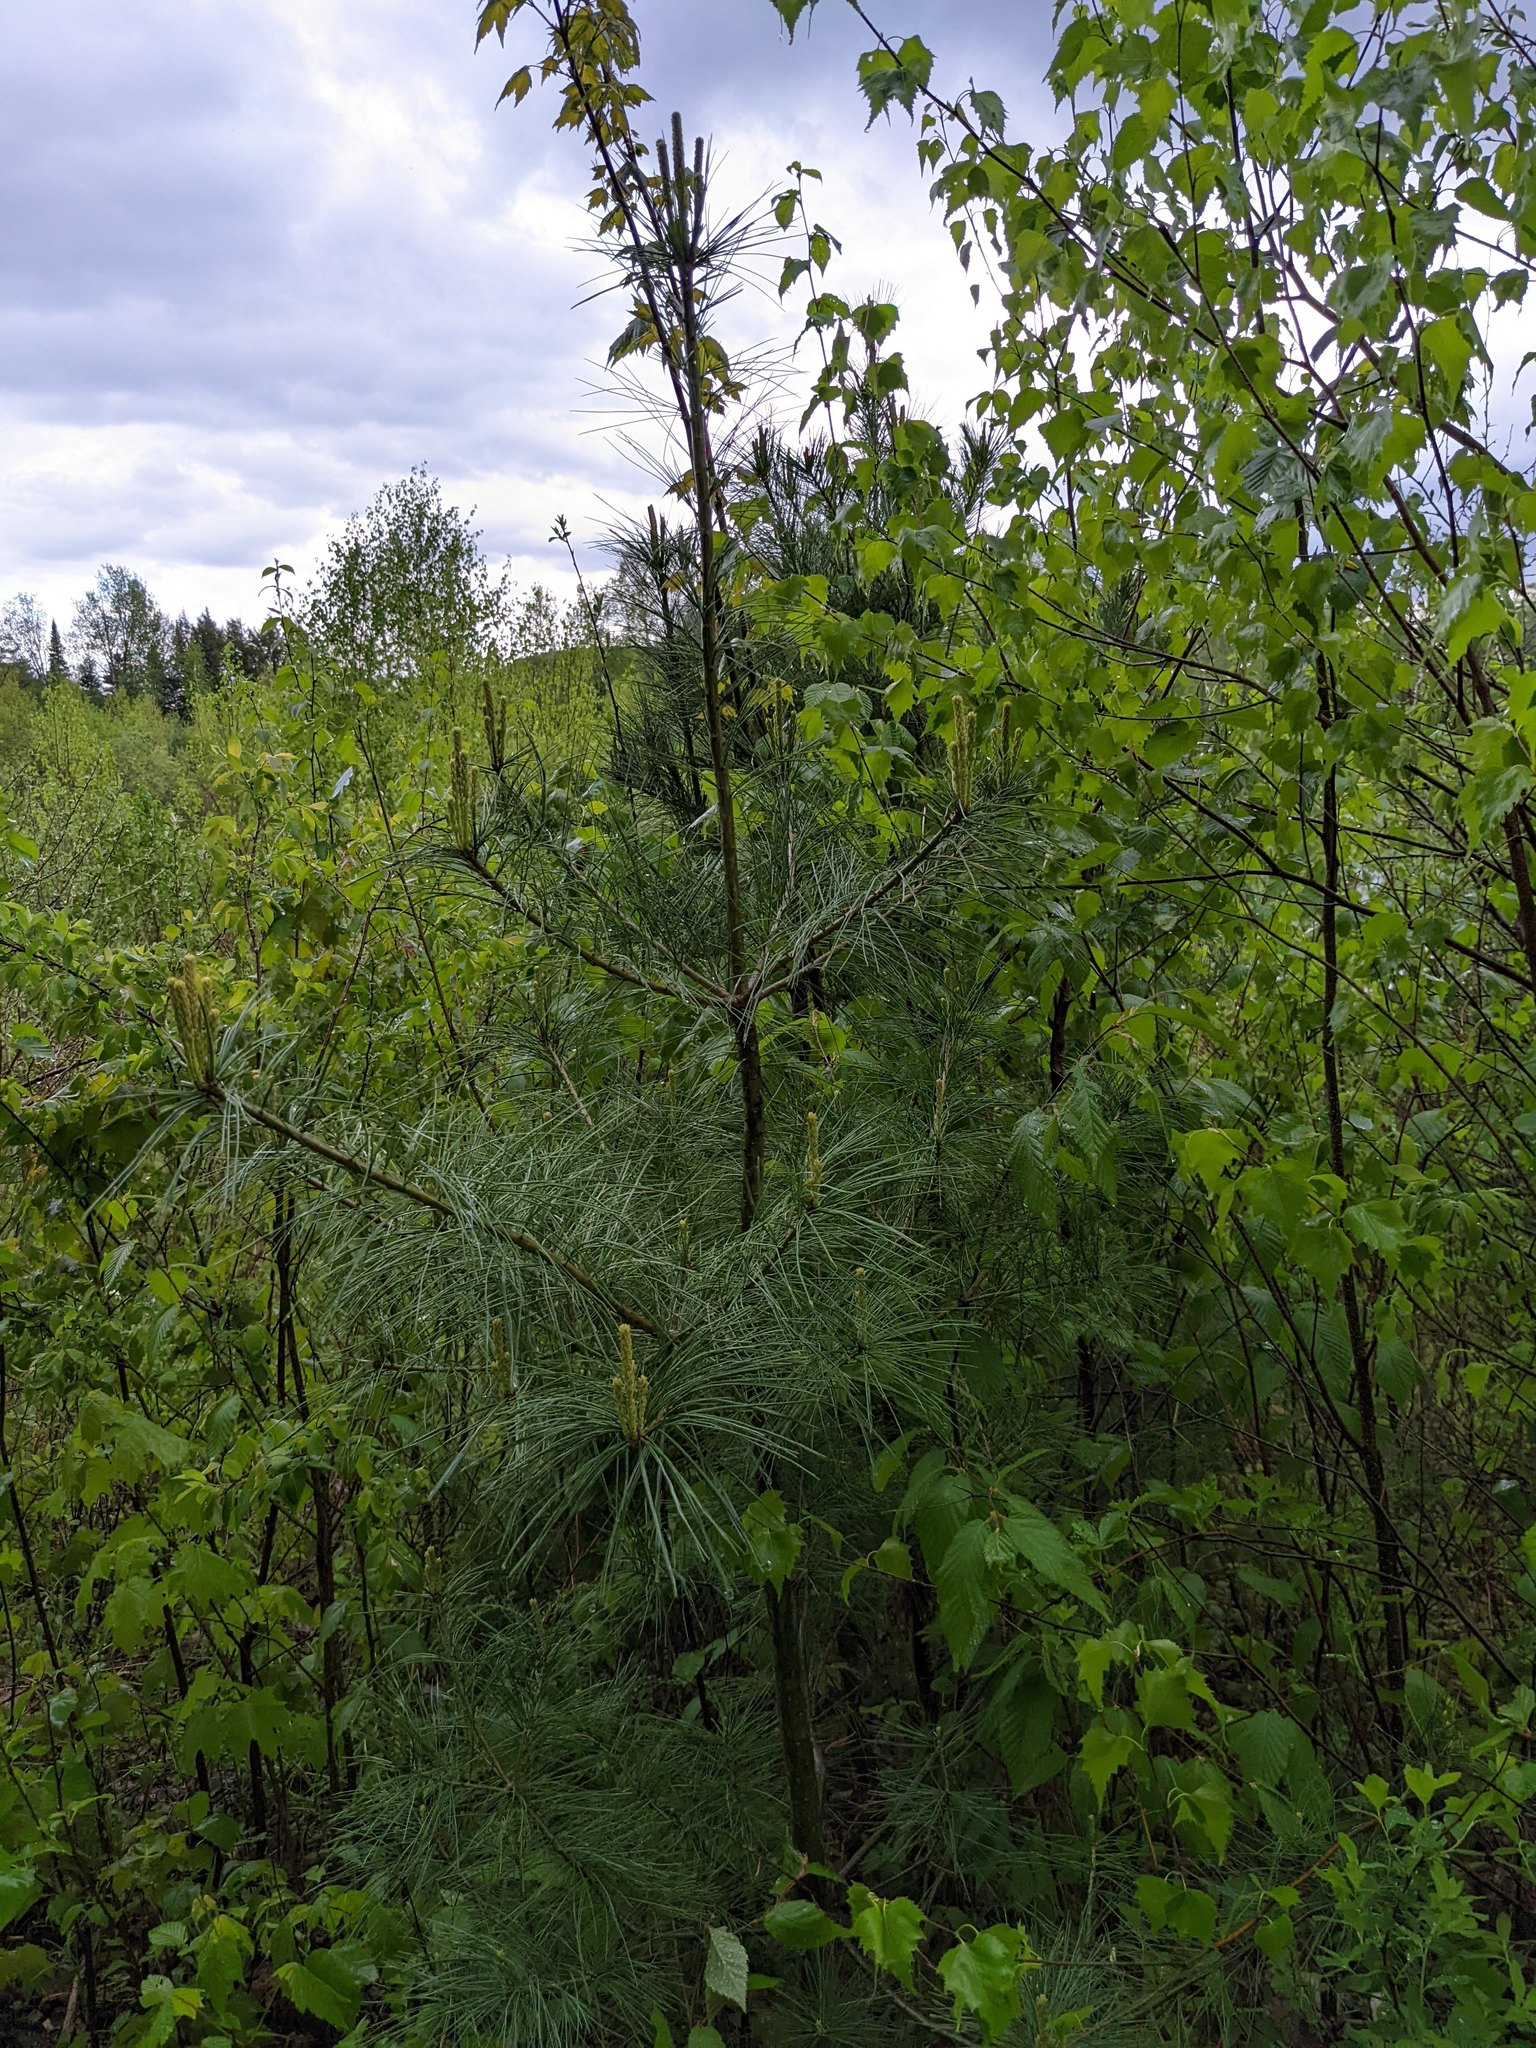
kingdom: Plantae
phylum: Tracheophyta
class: Pinopsida
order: Pinales
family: Pinaceae
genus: Pinus
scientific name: Pinus strobus
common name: Weymouth pine
